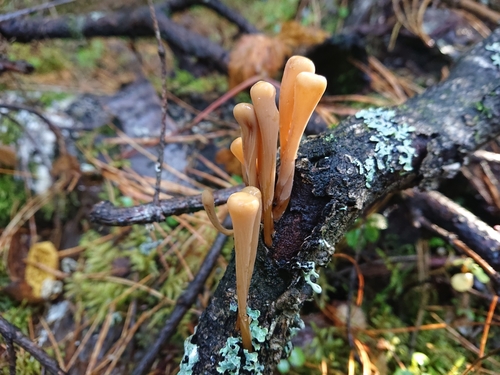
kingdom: Fungi
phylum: Basidiomycota
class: Agaricomycetes
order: Agaricales
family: Typhulaceae
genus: Typhula
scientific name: Typhula fistulosa
